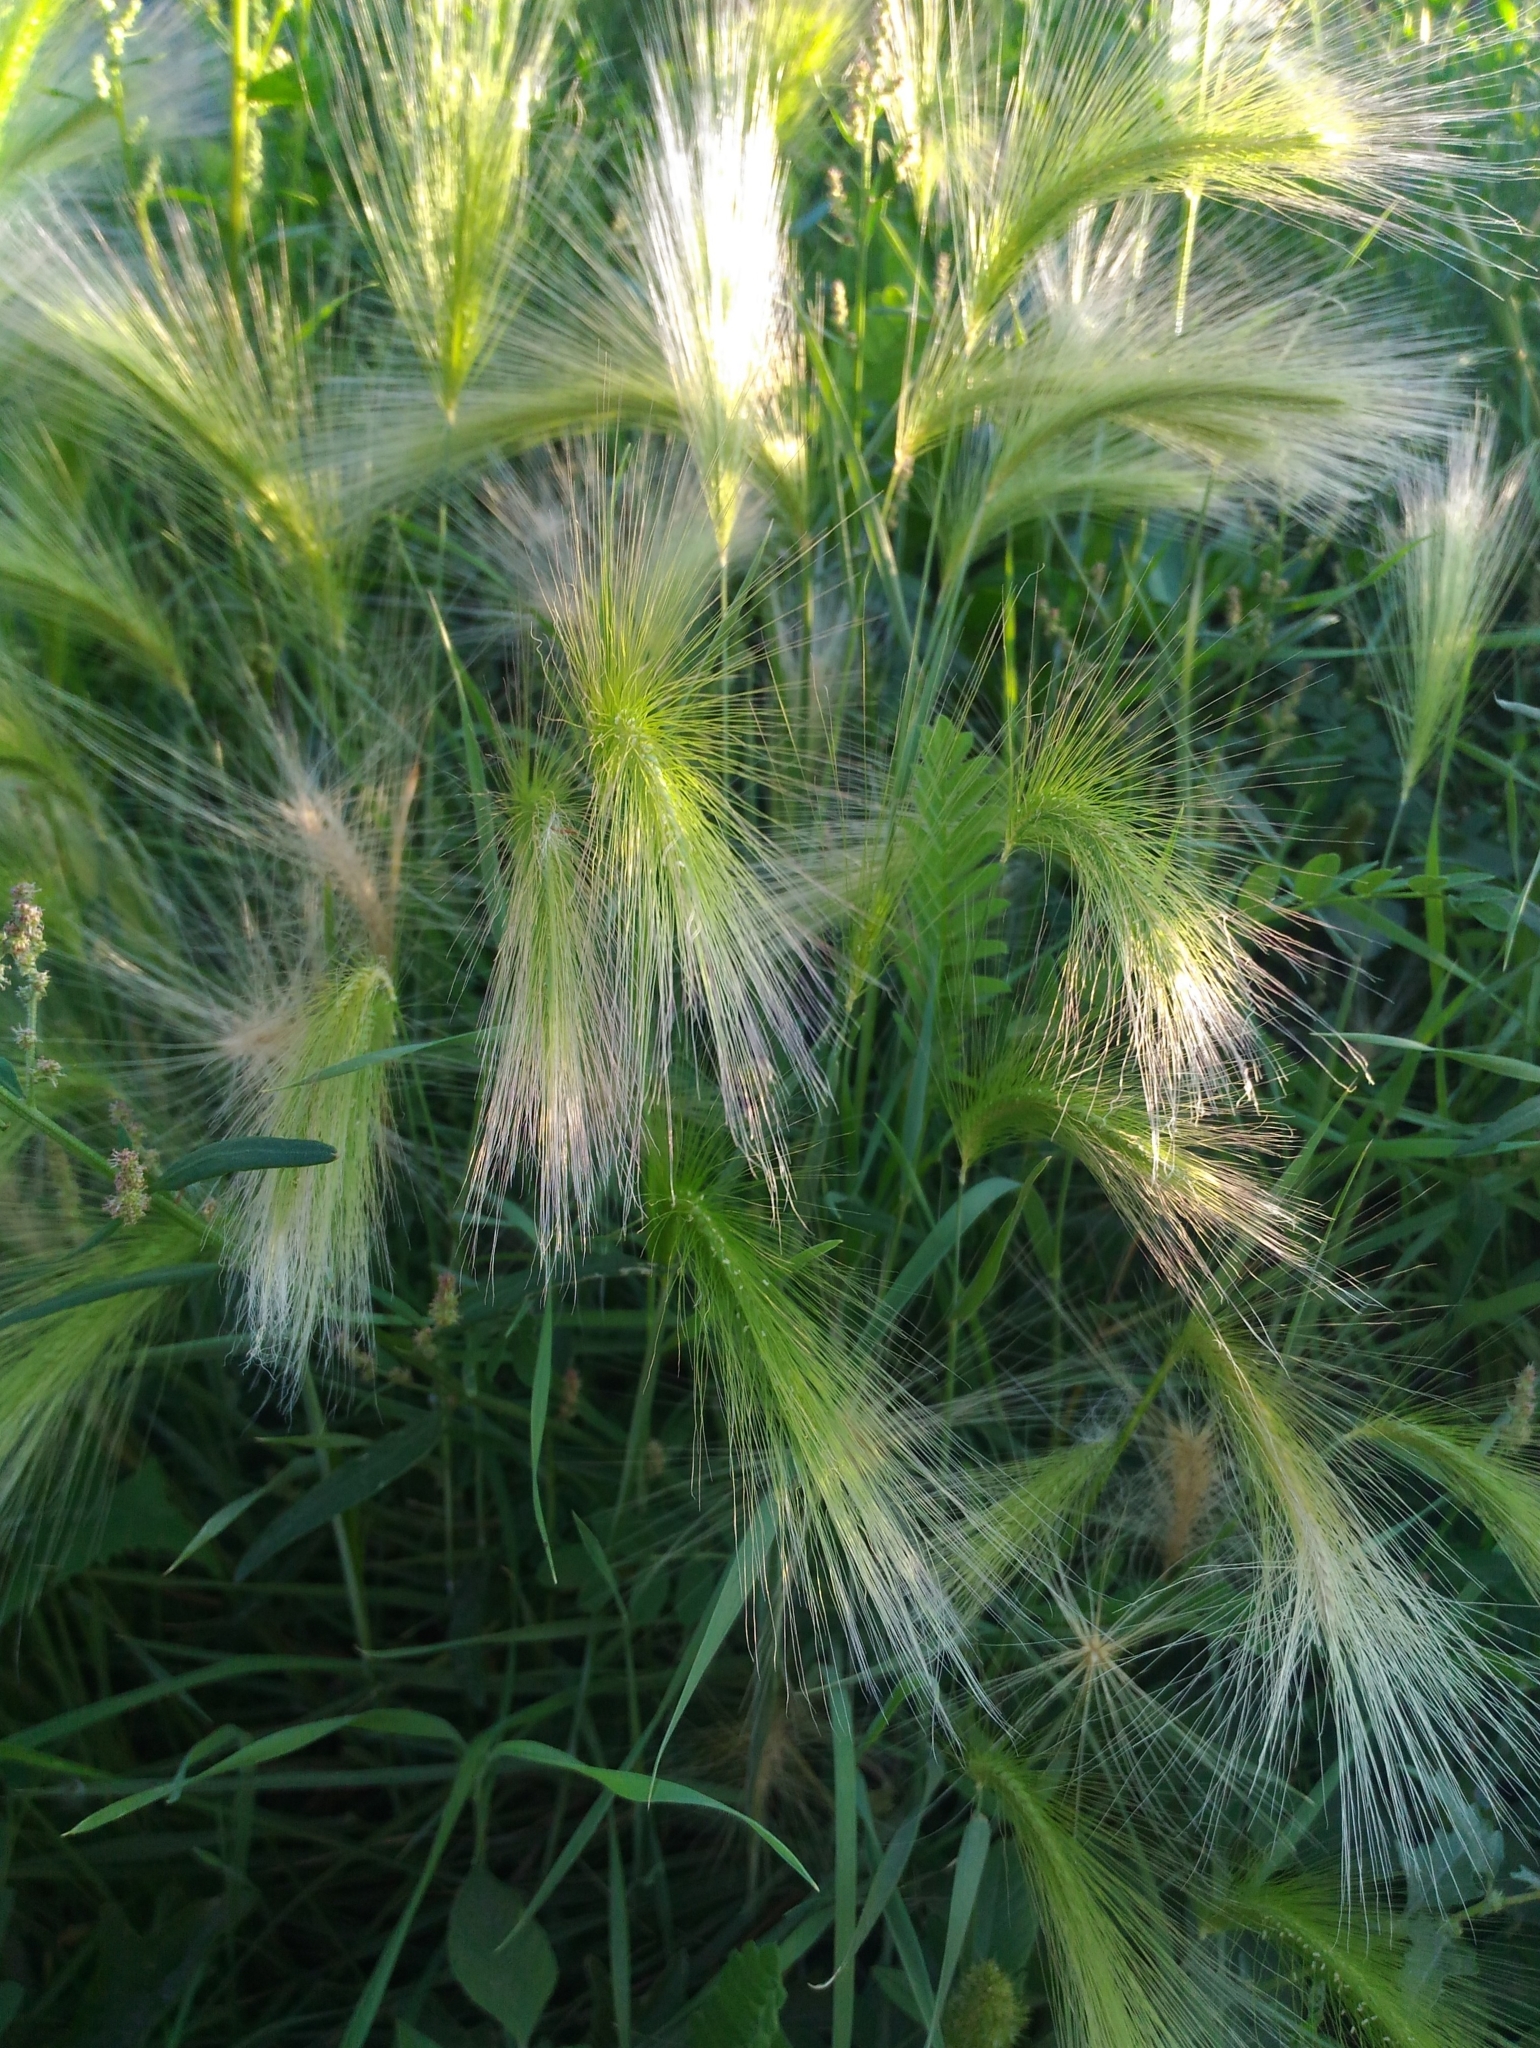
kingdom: Plantae
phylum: Tracheophyta
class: Liliopsida
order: Poales
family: Poaceae
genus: Hordeum
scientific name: Hordeum jubatum
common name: Foxtail barley
